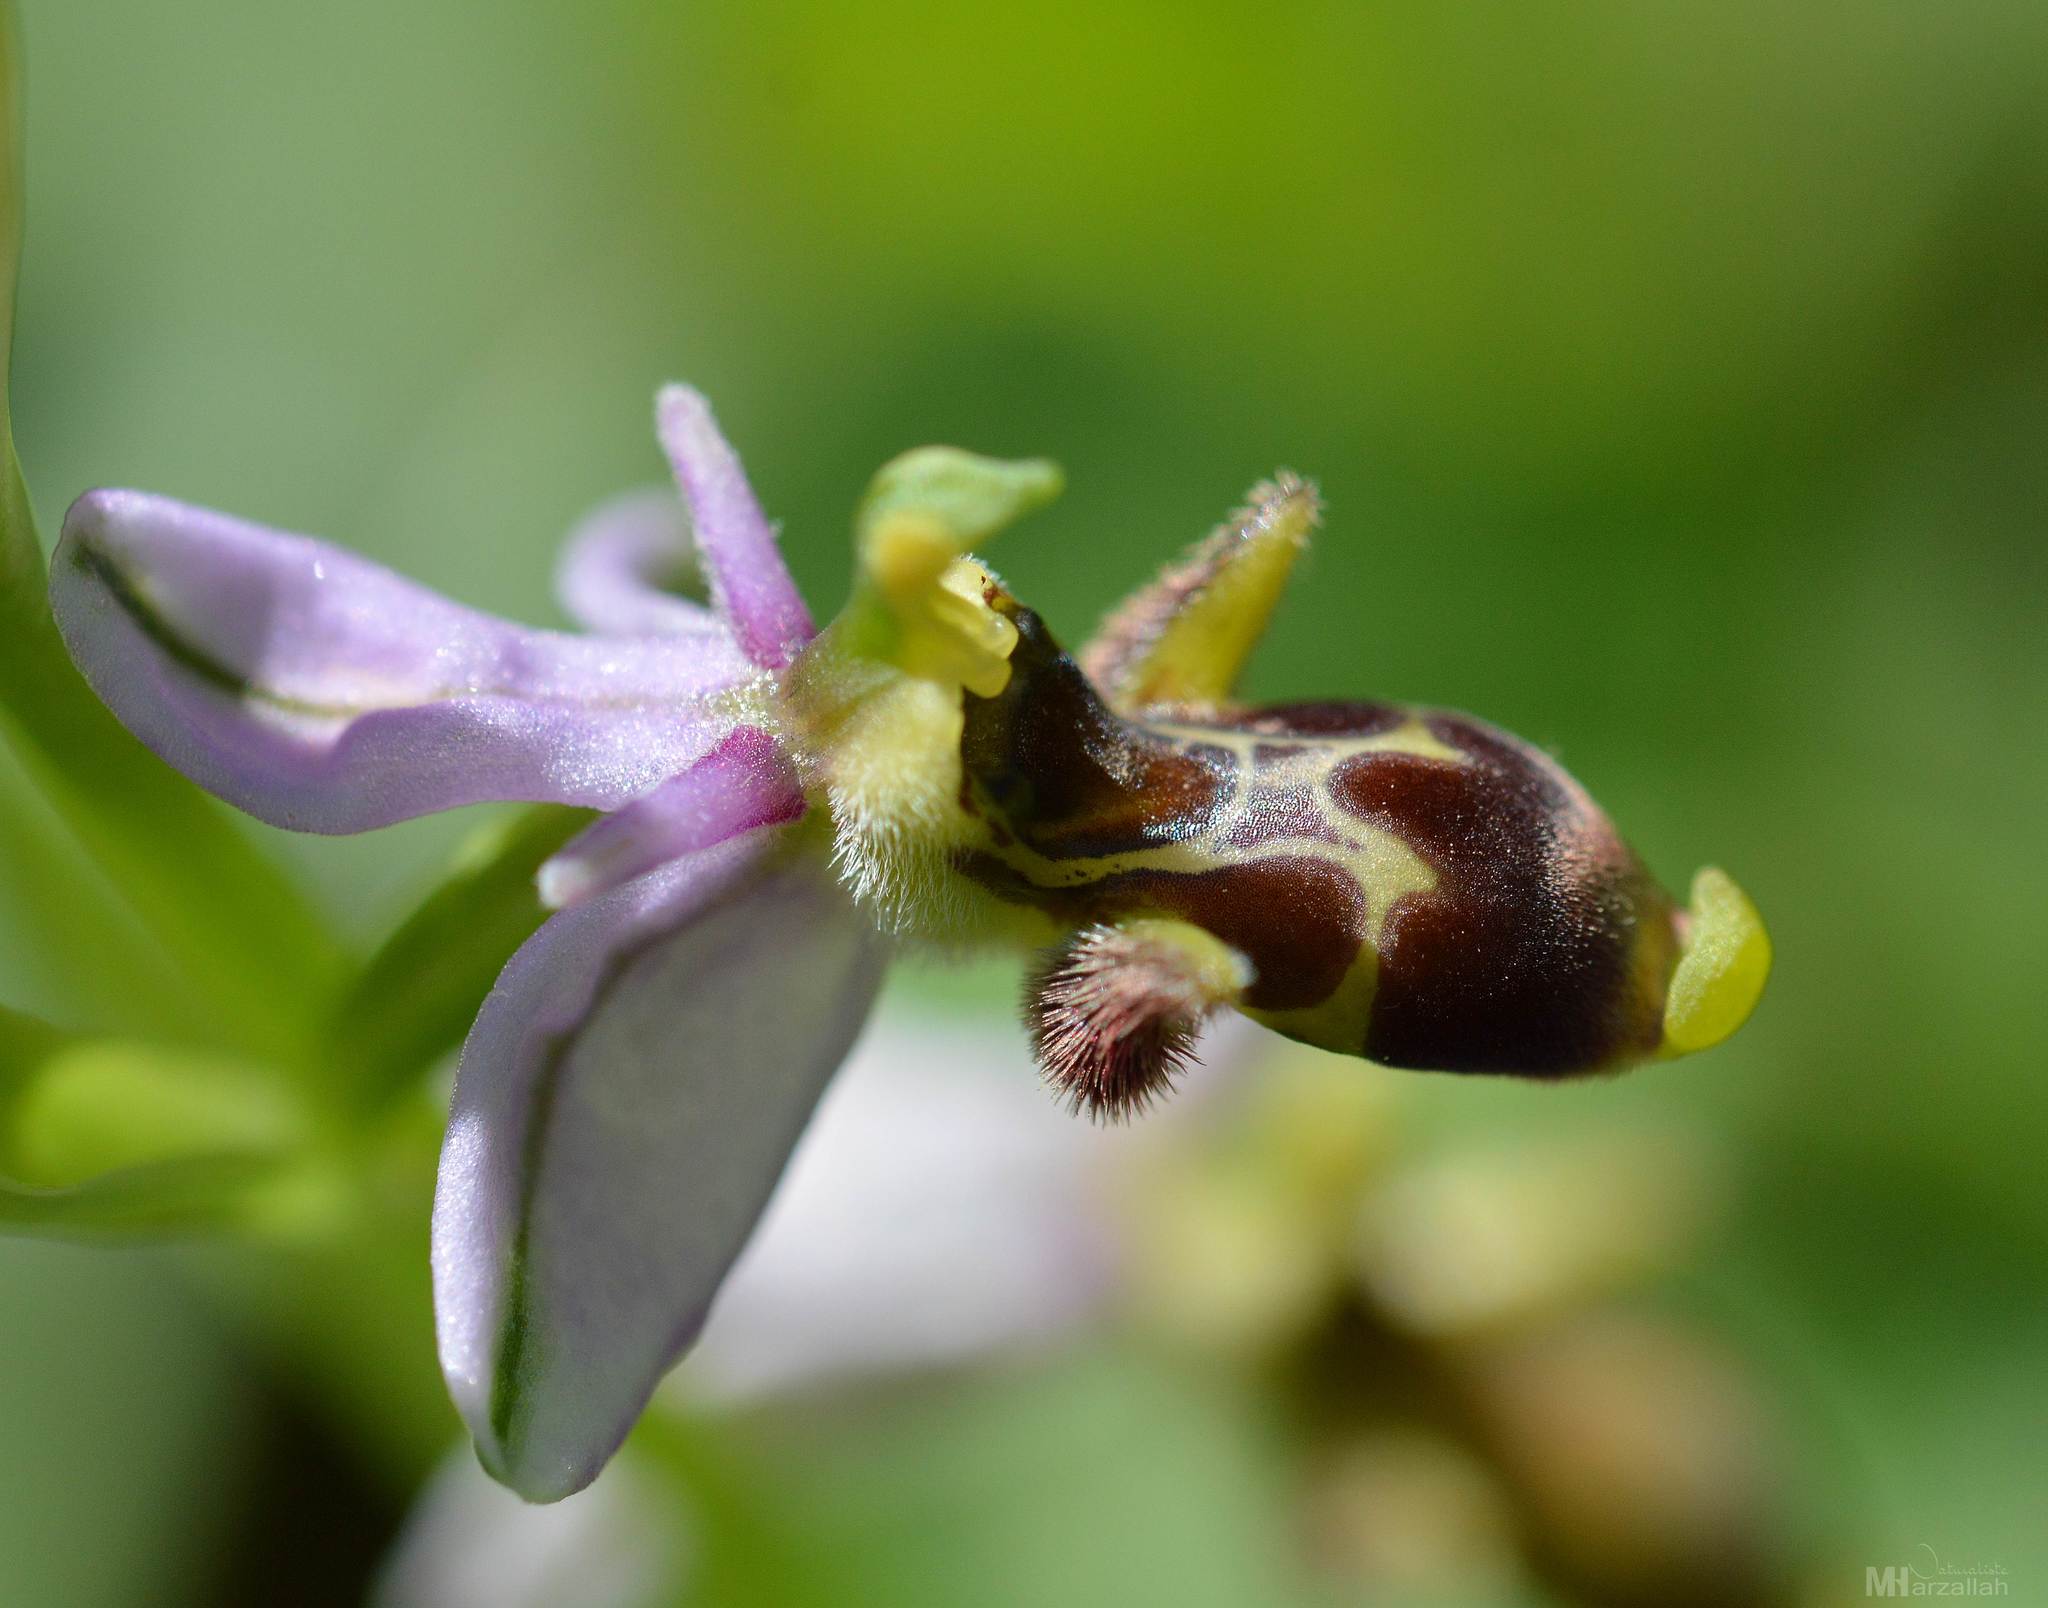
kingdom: Plantae
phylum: Tracheophyta
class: Liliopsida
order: Asparagales
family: Orchidaceae
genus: Ophrys
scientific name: Ophrys scolopax
